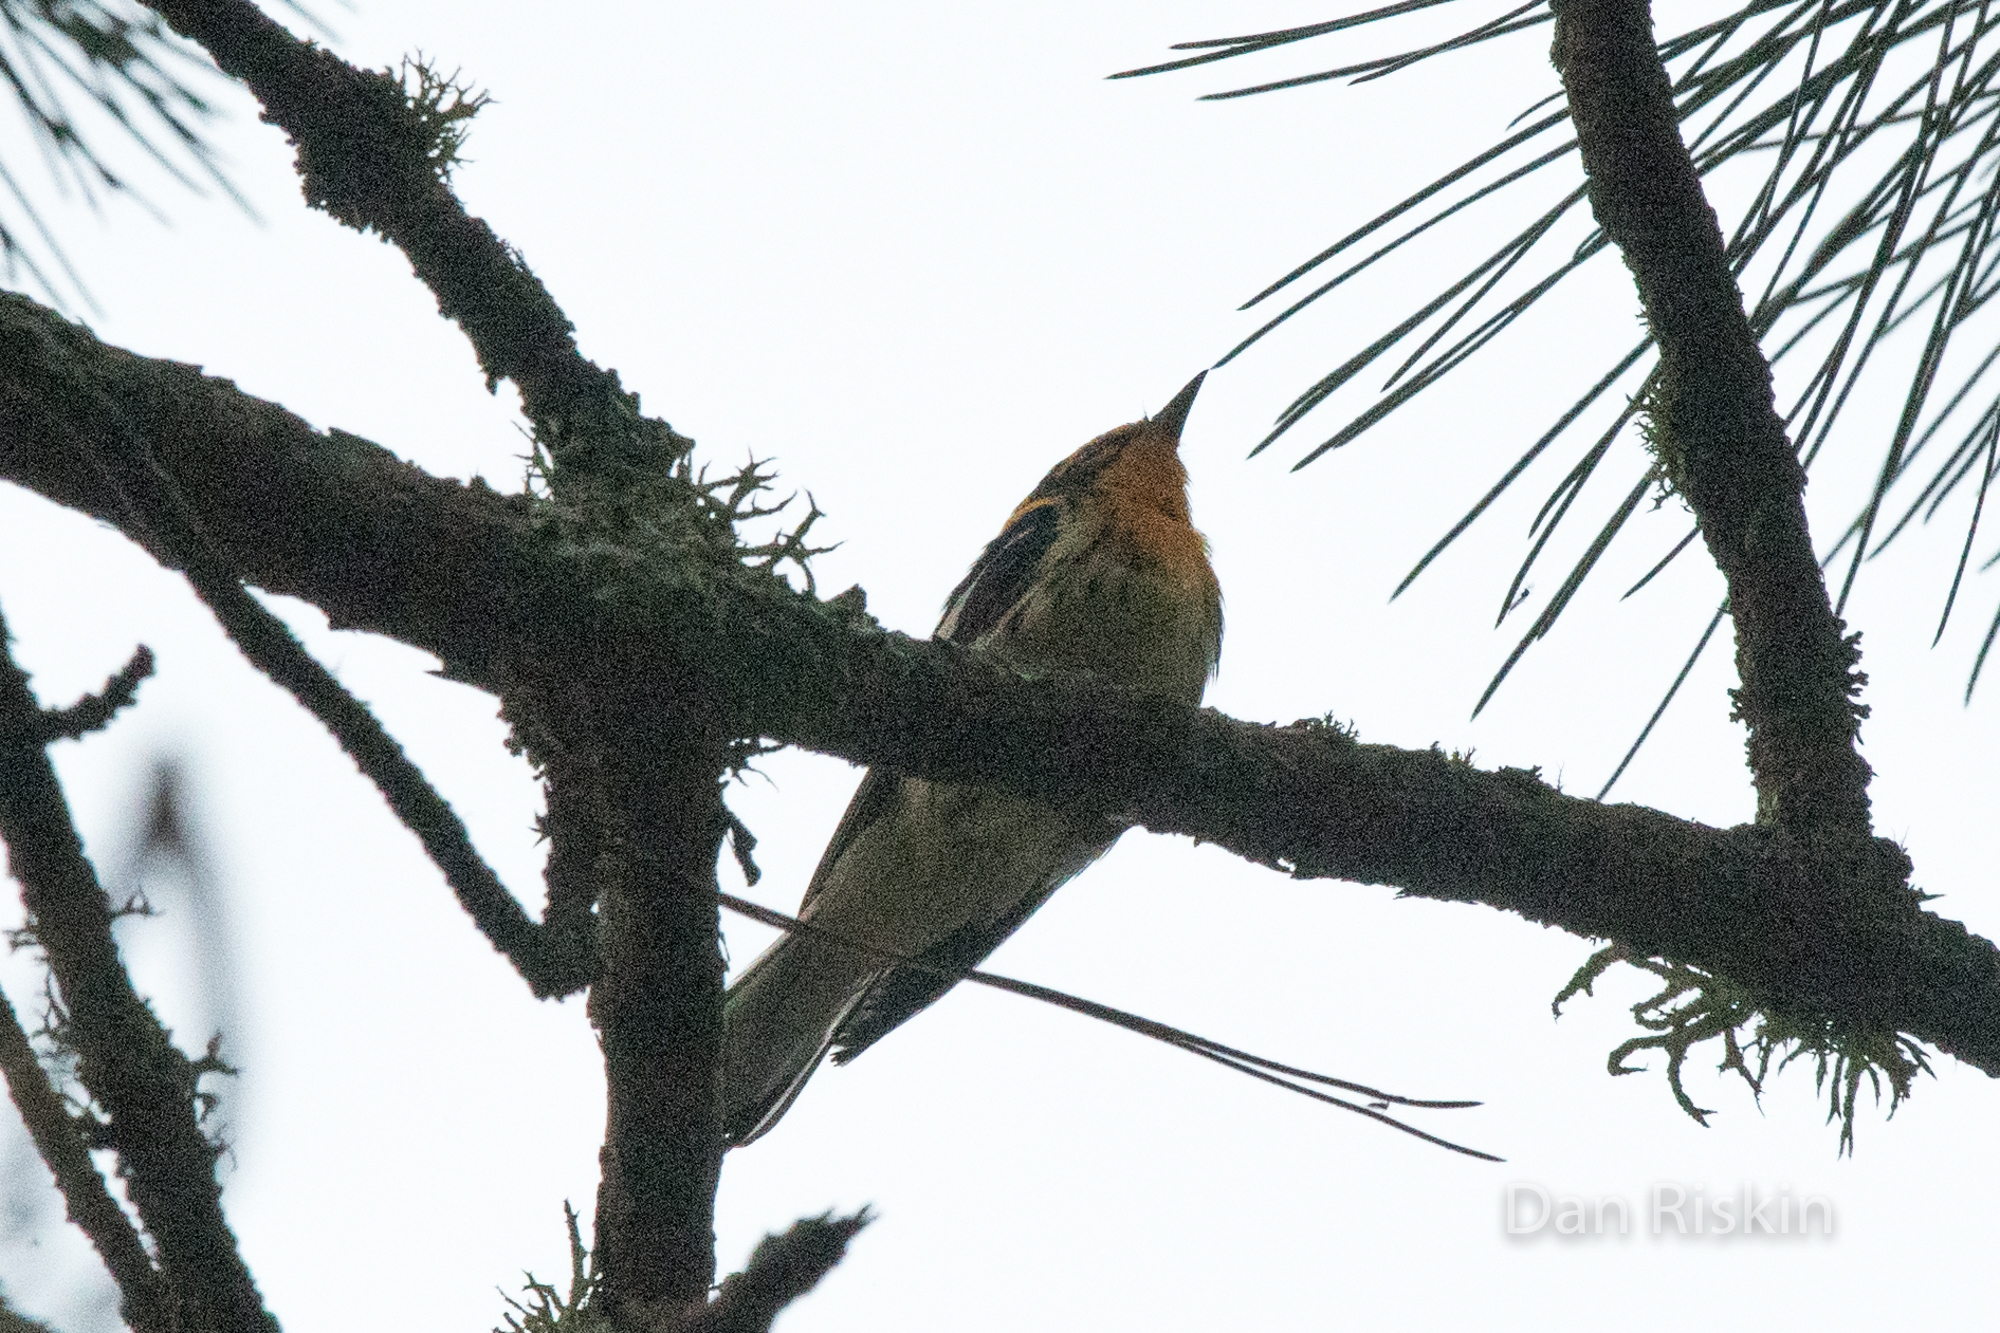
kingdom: Animalia
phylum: Chordata
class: Aves
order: Passeriformes
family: Parulidae
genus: Setophaga
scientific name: Setophaga fusca
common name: Blackburnian warbler
